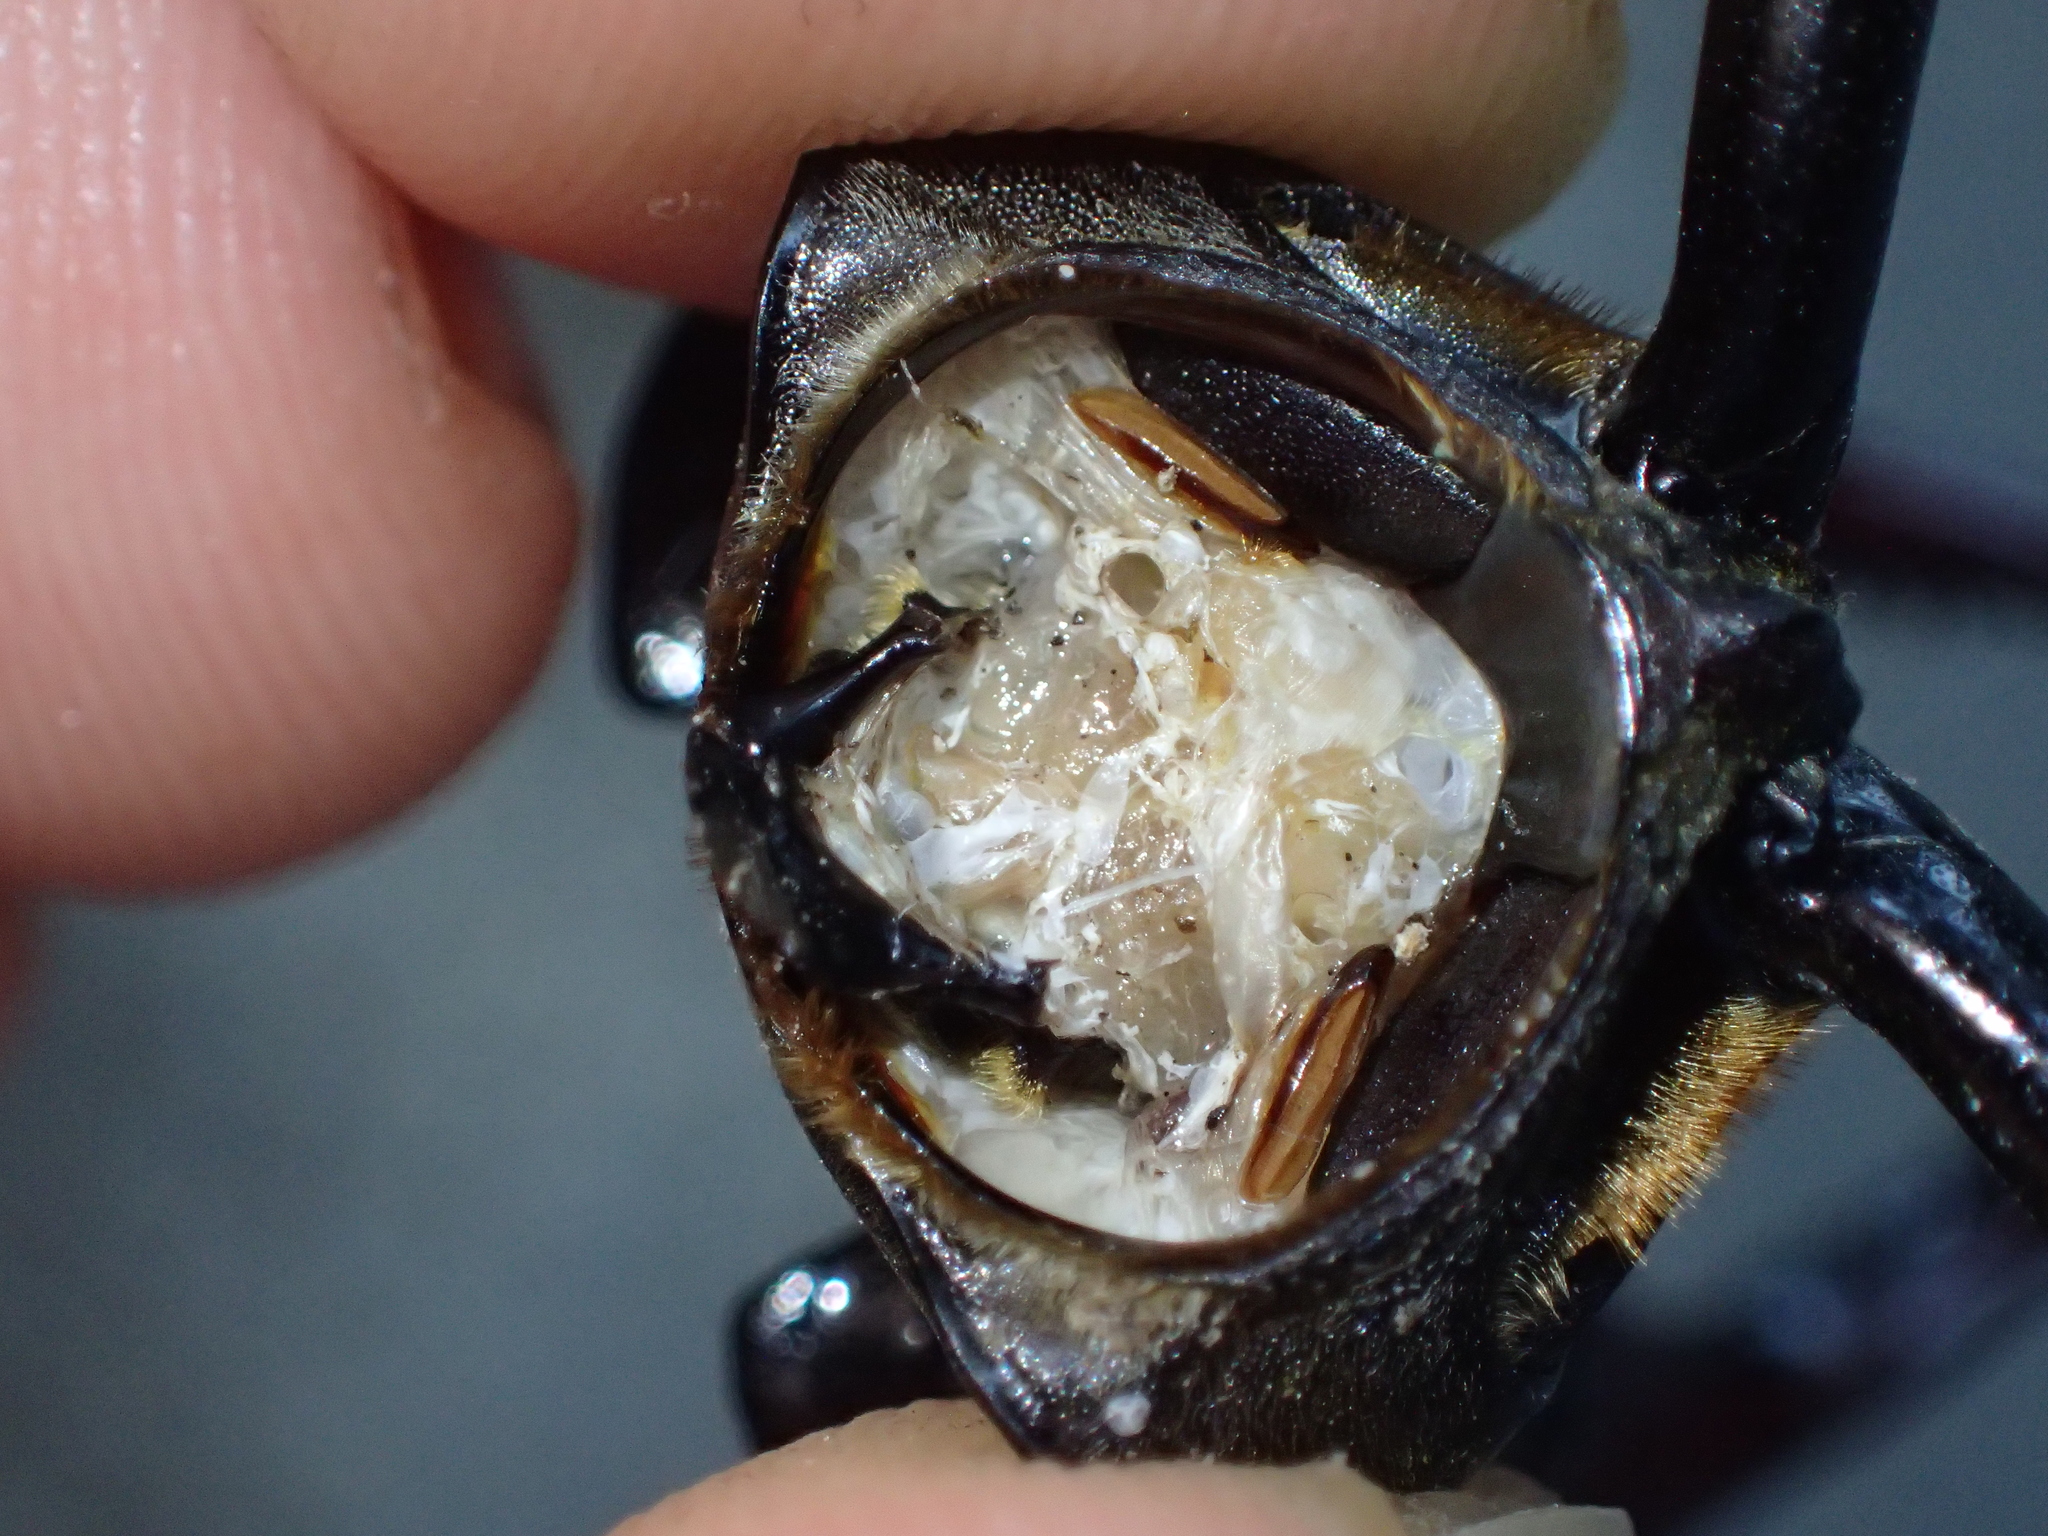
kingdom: Animalia
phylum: Arthropoda
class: Insecta
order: Coleoptera
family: Lucanidae
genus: Lucanus
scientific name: Lucanus cervus
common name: Stag beetle
